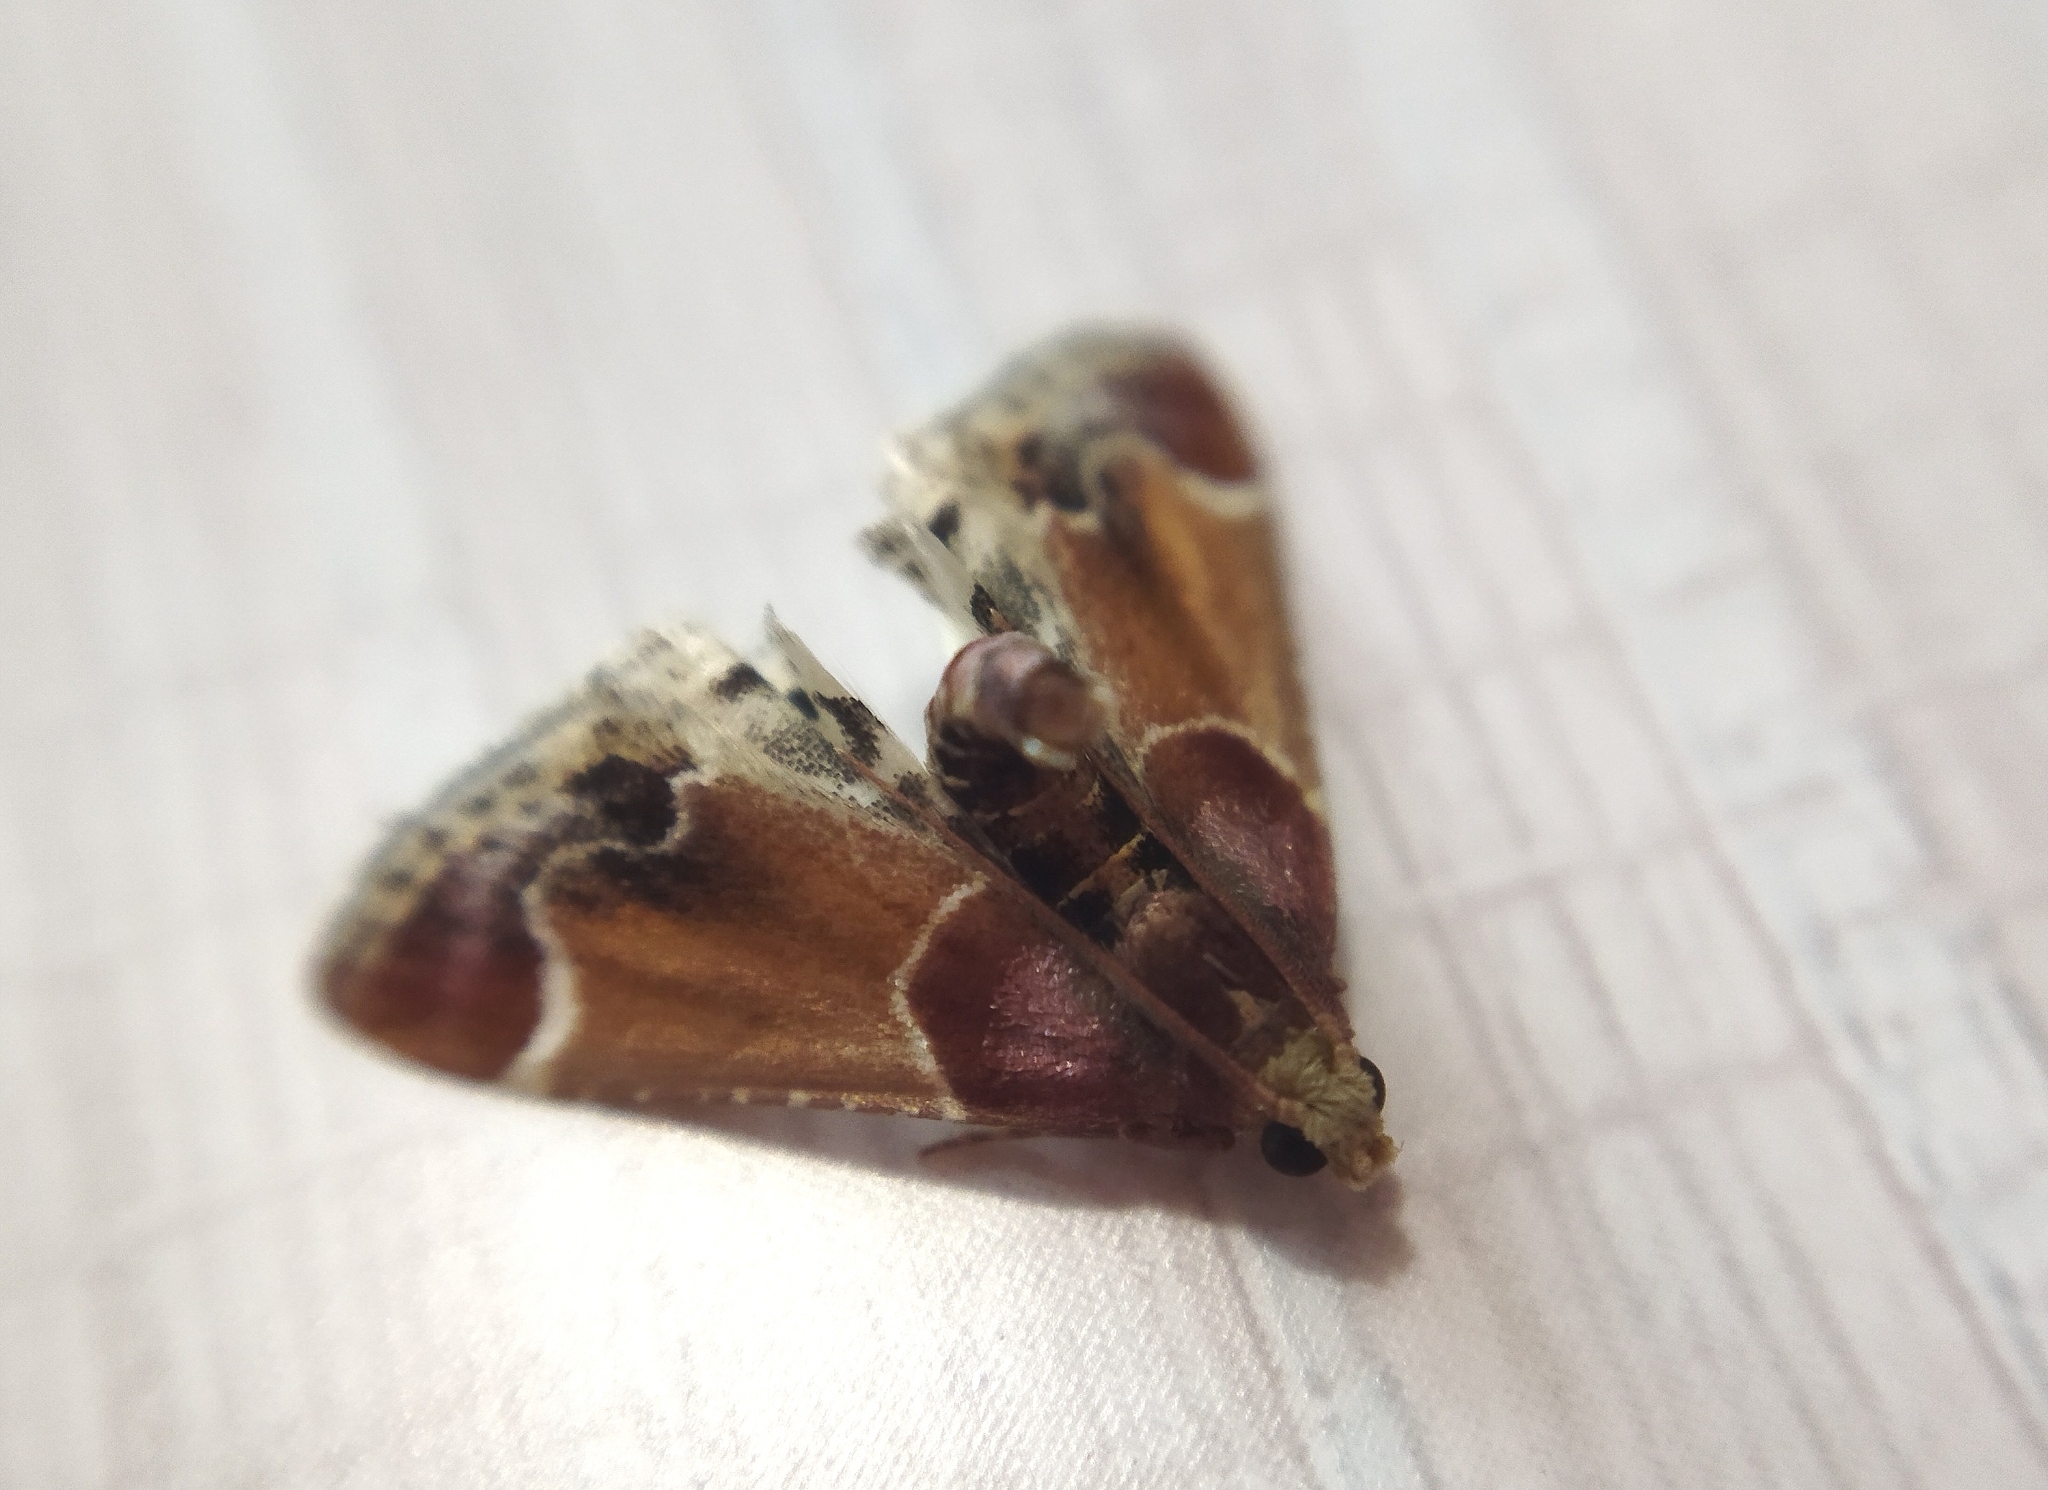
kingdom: Animalia
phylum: Arthropoda
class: Insecta
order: Lepidoptera
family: Pyralidae
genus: Pyralis
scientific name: Pyralis farinalis
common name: Meal moth
